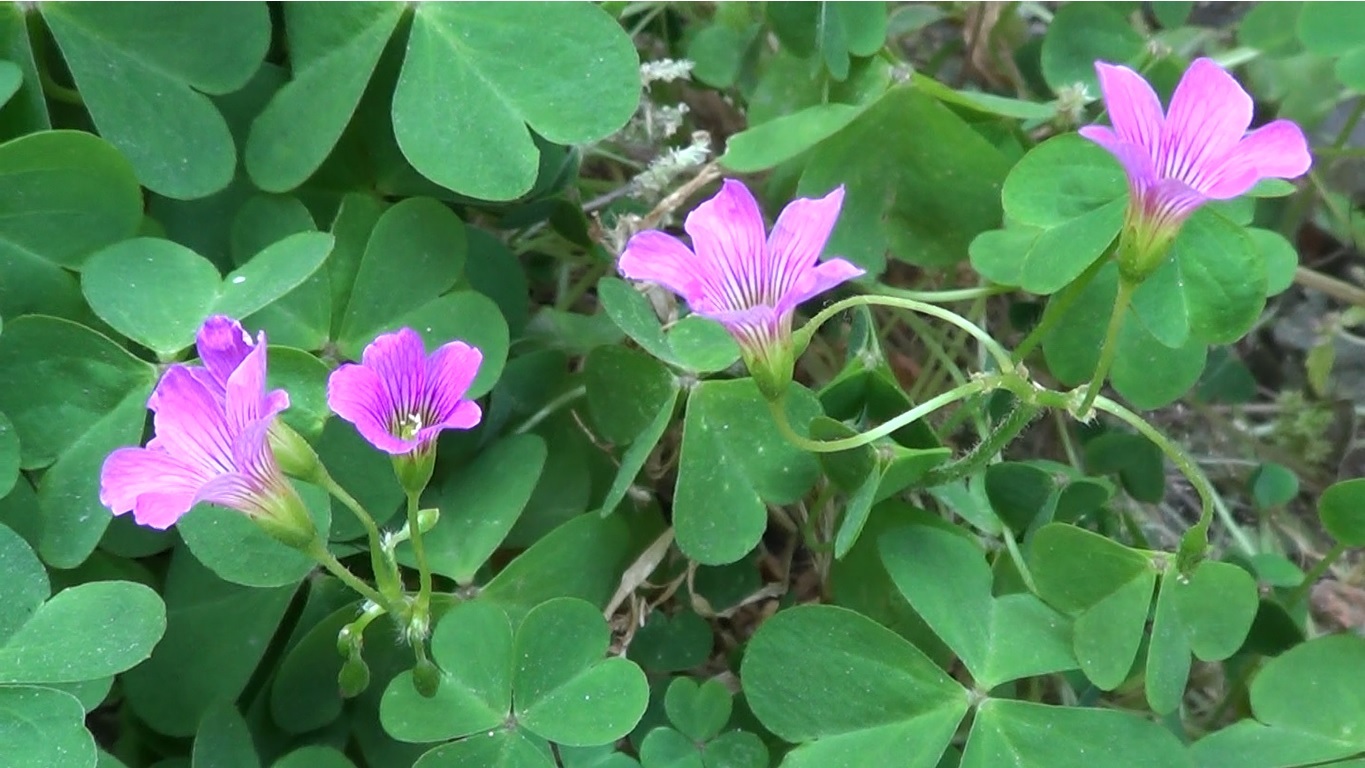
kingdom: Plantae
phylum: Tracheophyta
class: Magnoliopsida
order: Oxalidales
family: Oxalidaceae
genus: Oxalis
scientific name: Oxalis debilis
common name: Large-flowered pink-sorrel
